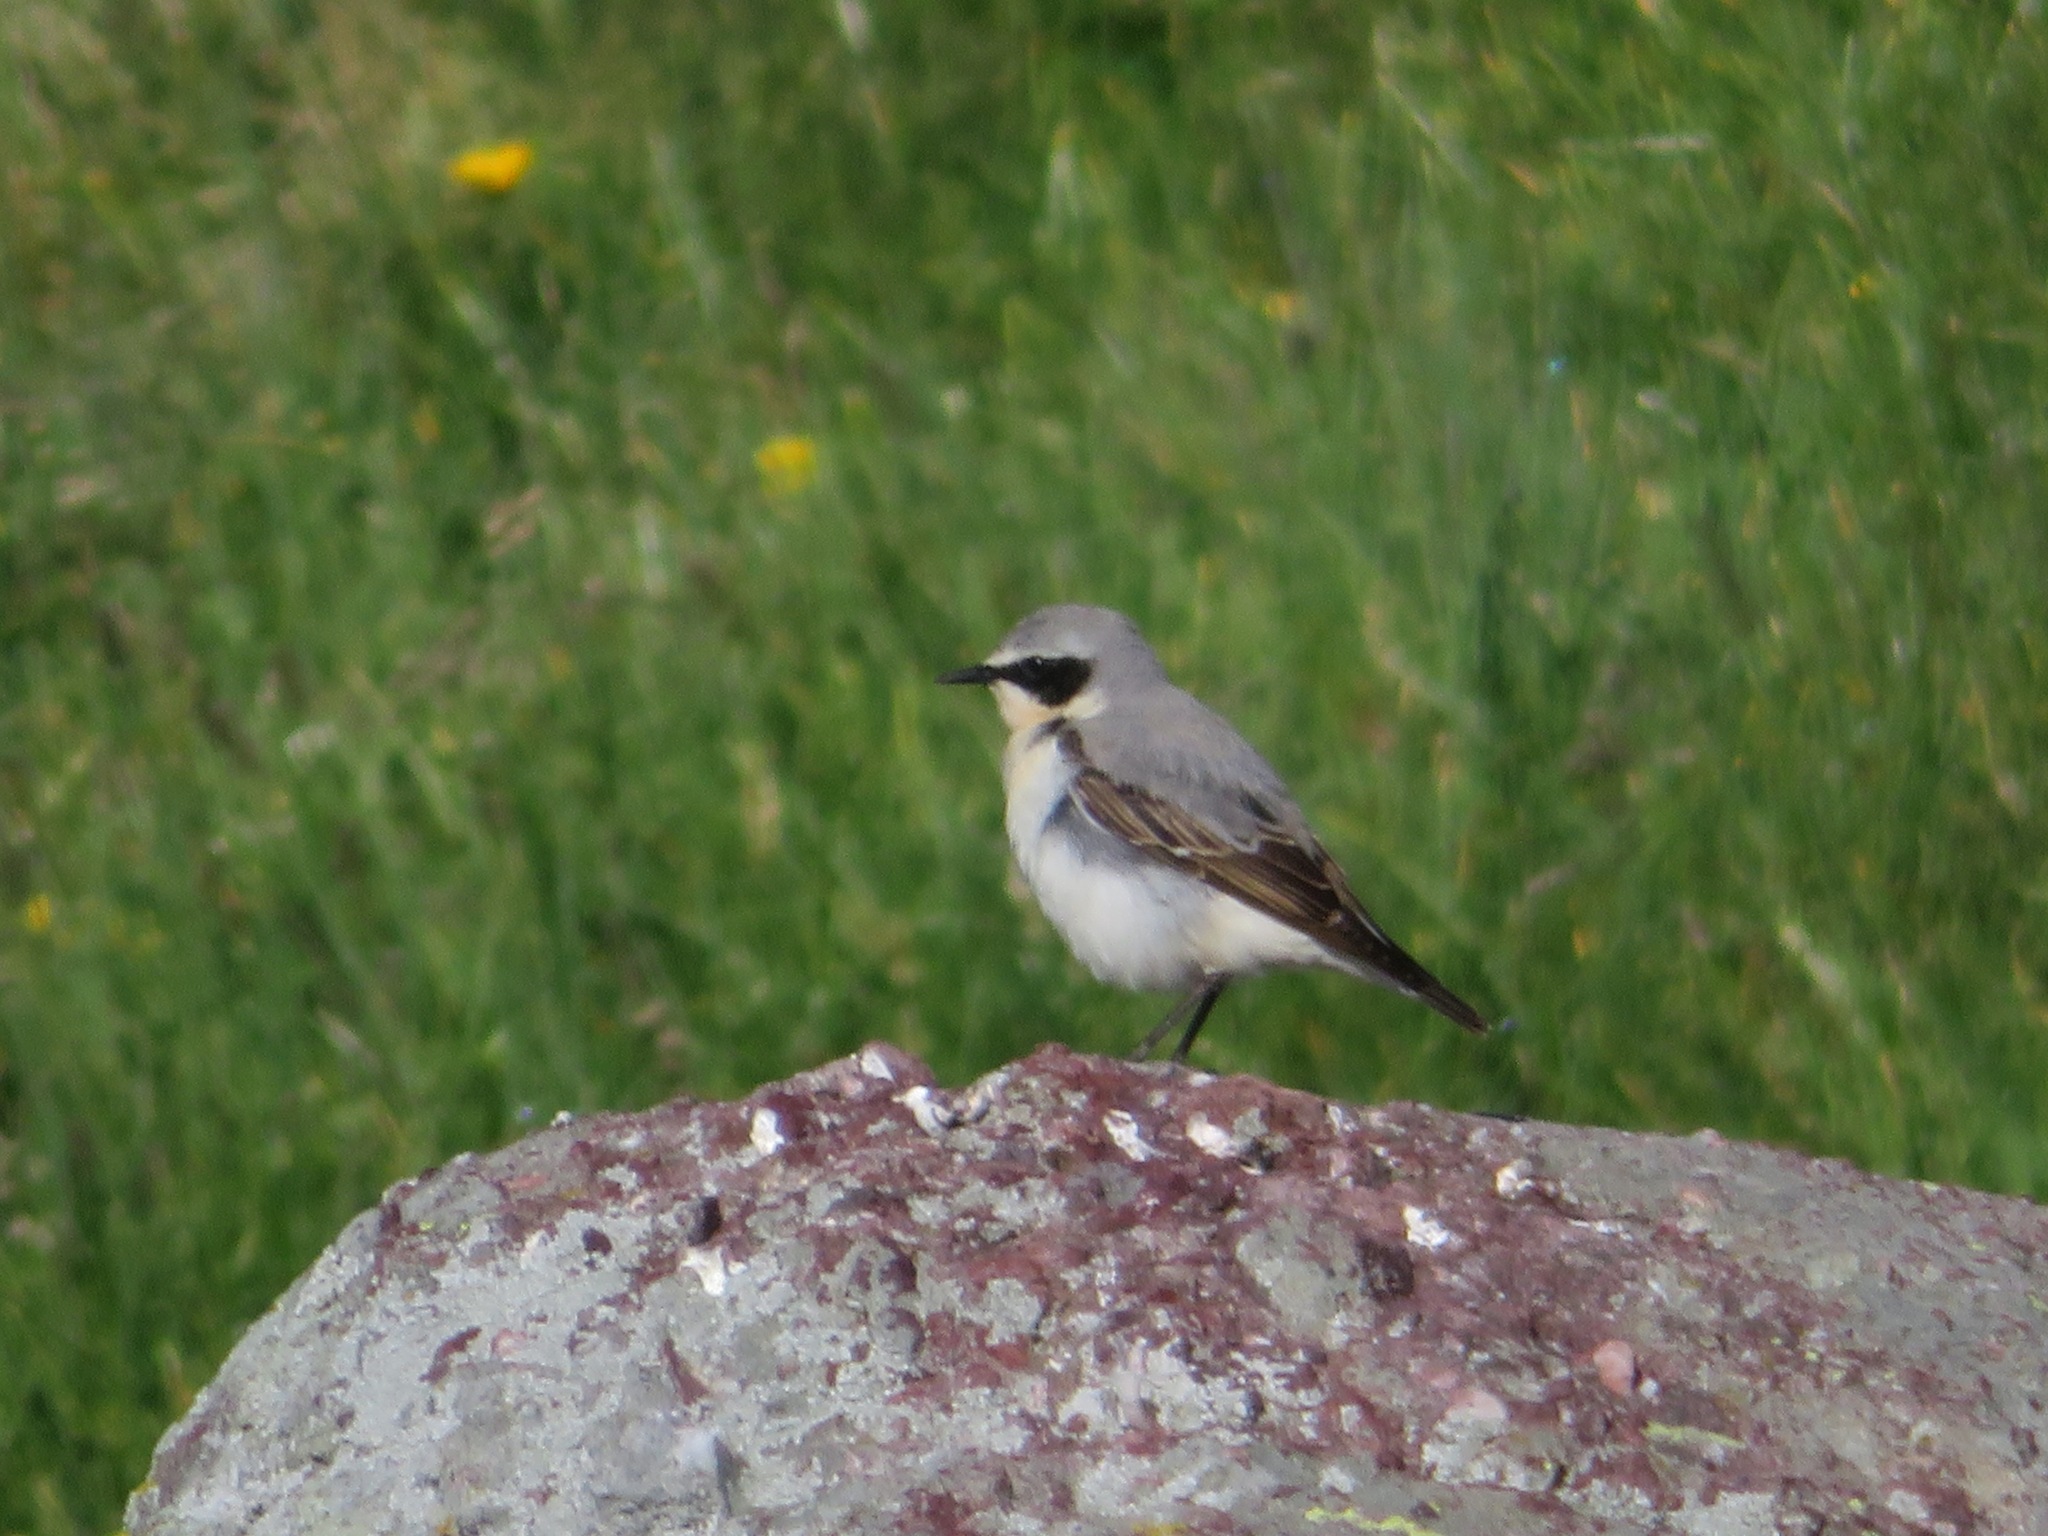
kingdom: Animalia
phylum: Chordata
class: Aves
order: Passeriformes
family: Muscicapidae
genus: Oenanthe
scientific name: Oenanthe oenanthe
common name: Northern wheatear
